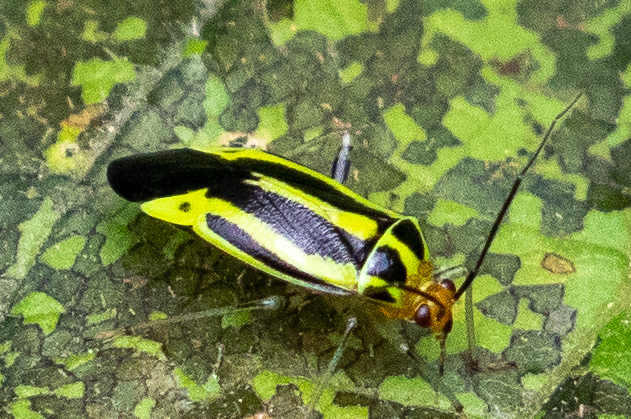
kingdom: Animalia
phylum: Arthropoda
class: Insecta
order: Hemiptera
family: Miridae
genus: Poecilocapsus
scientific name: Poecilocapsus lineatus
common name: Four-lined plant bug
